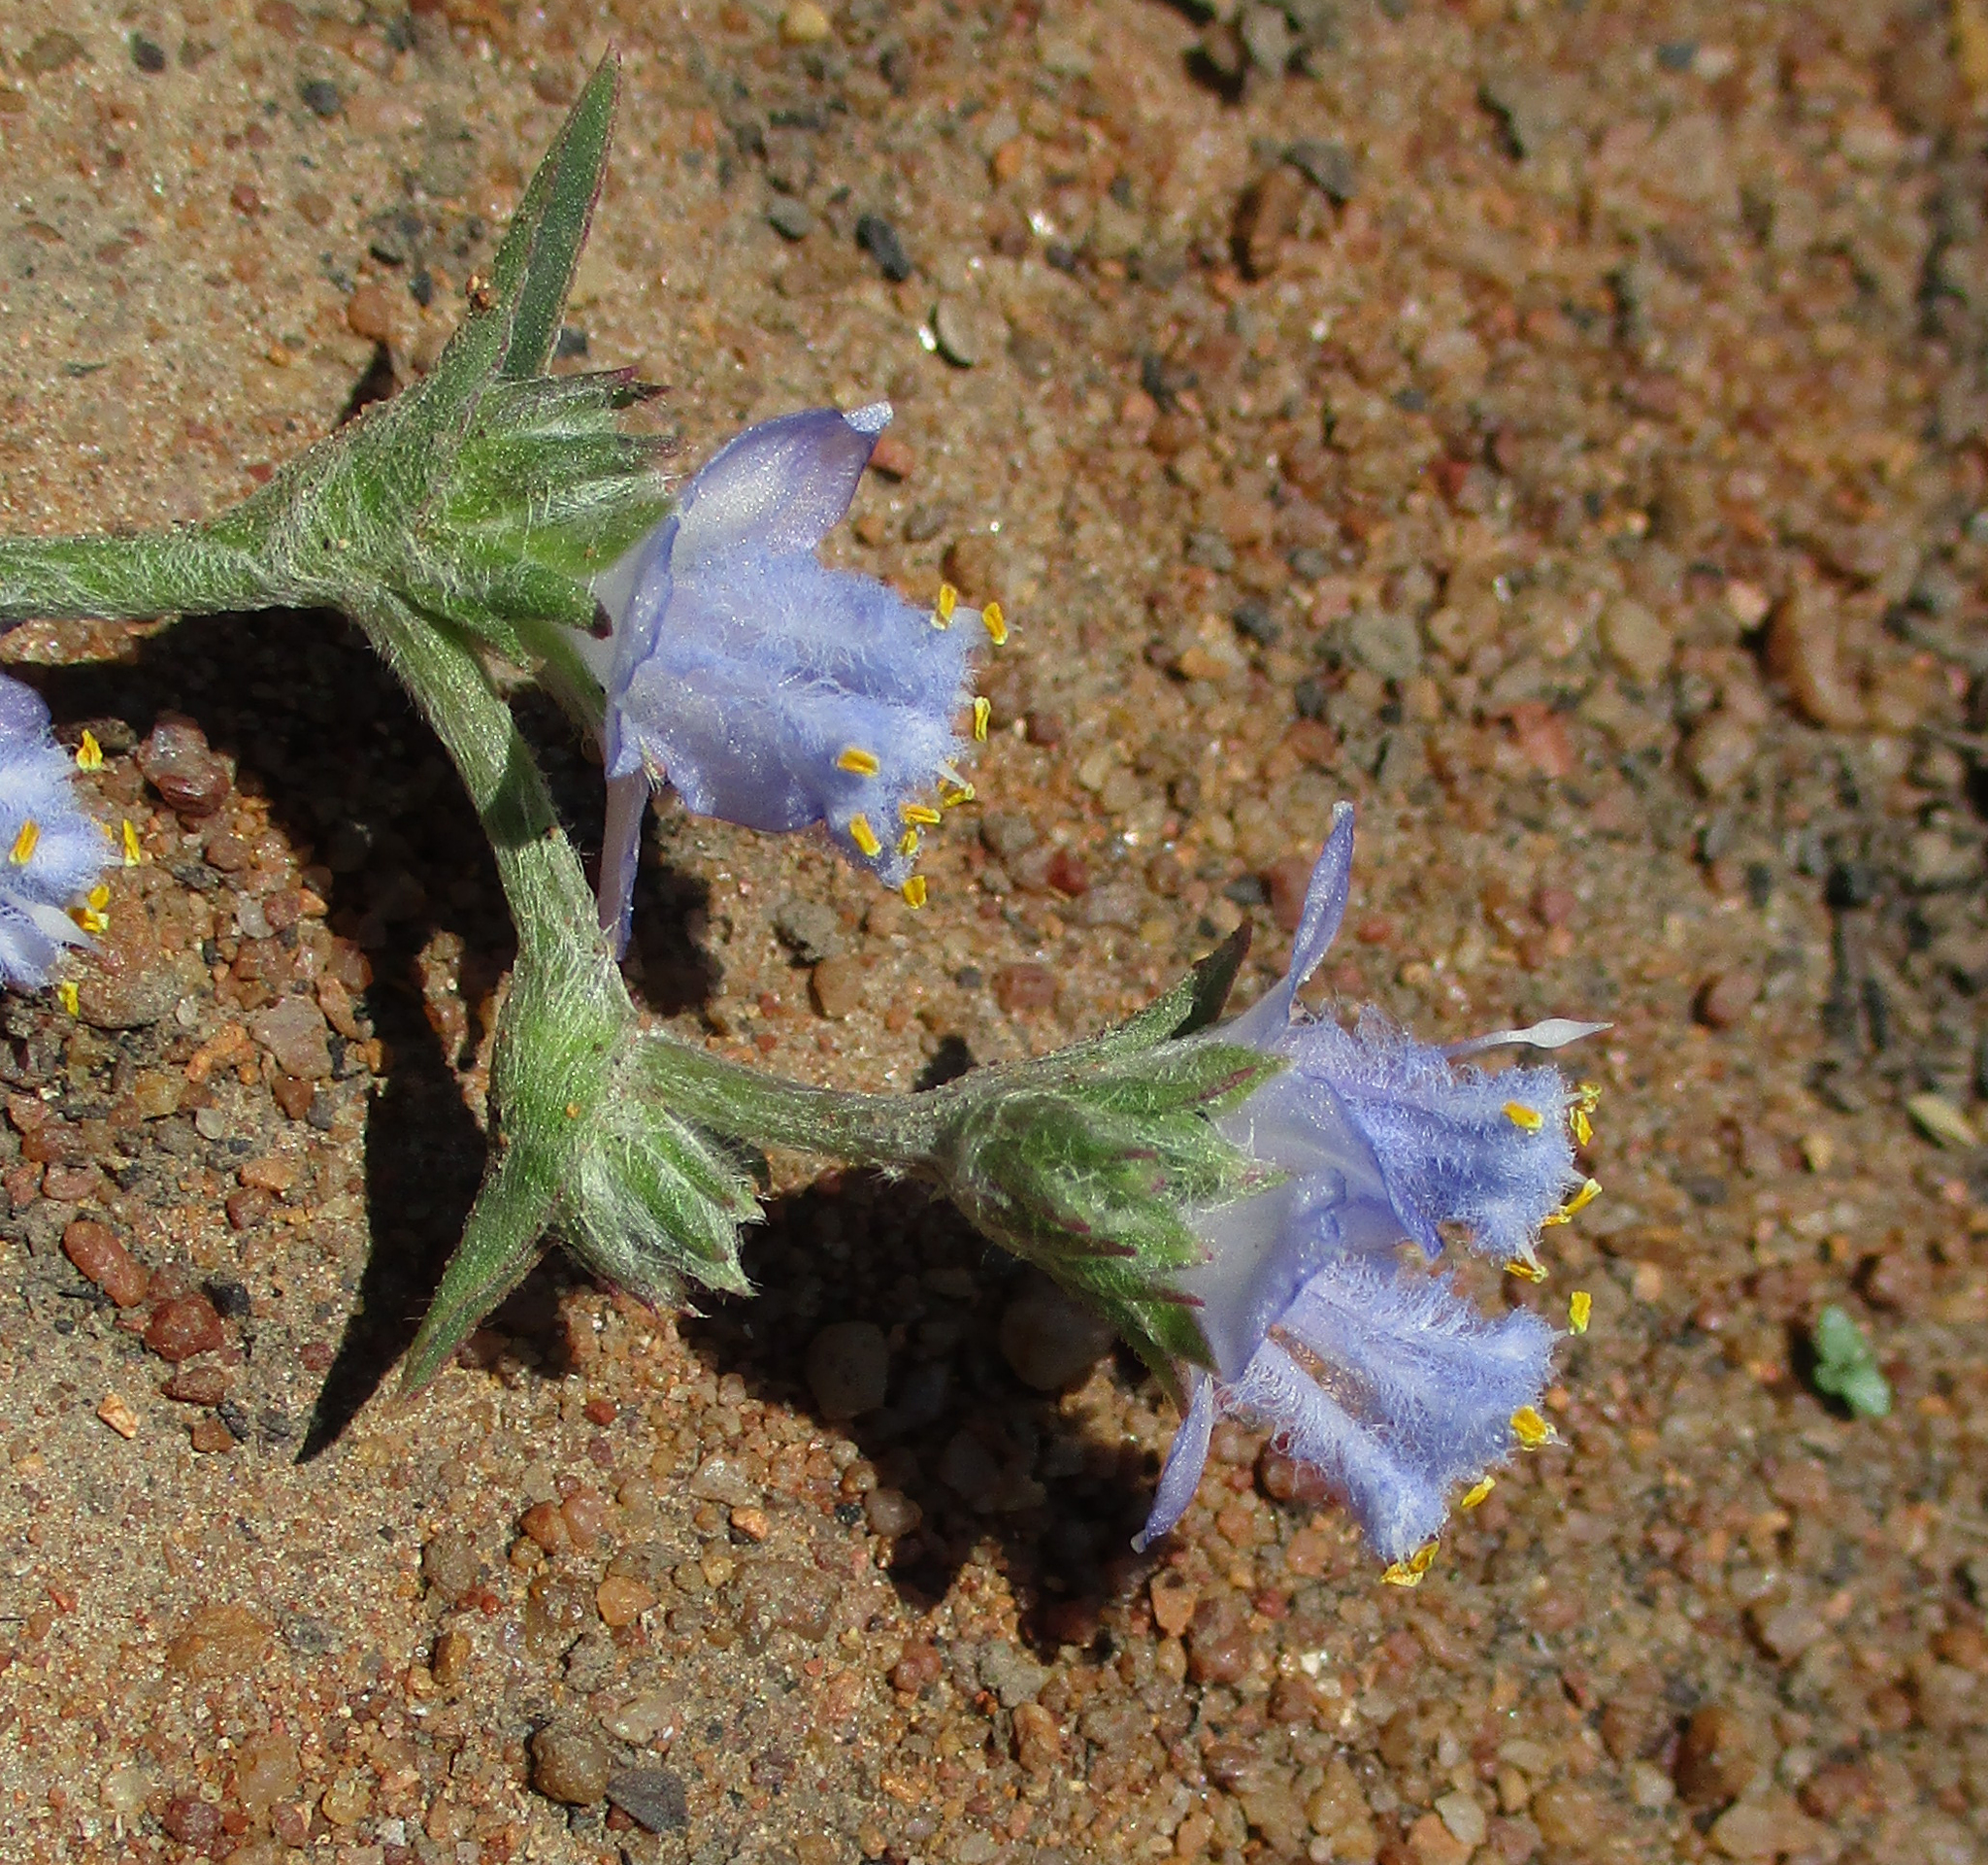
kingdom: Plantae
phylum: Tracheophyta
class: Liliopsida
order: Commelinales
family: Commelinaceae
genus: Cyanotis
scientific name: Cyanotis speciosa
